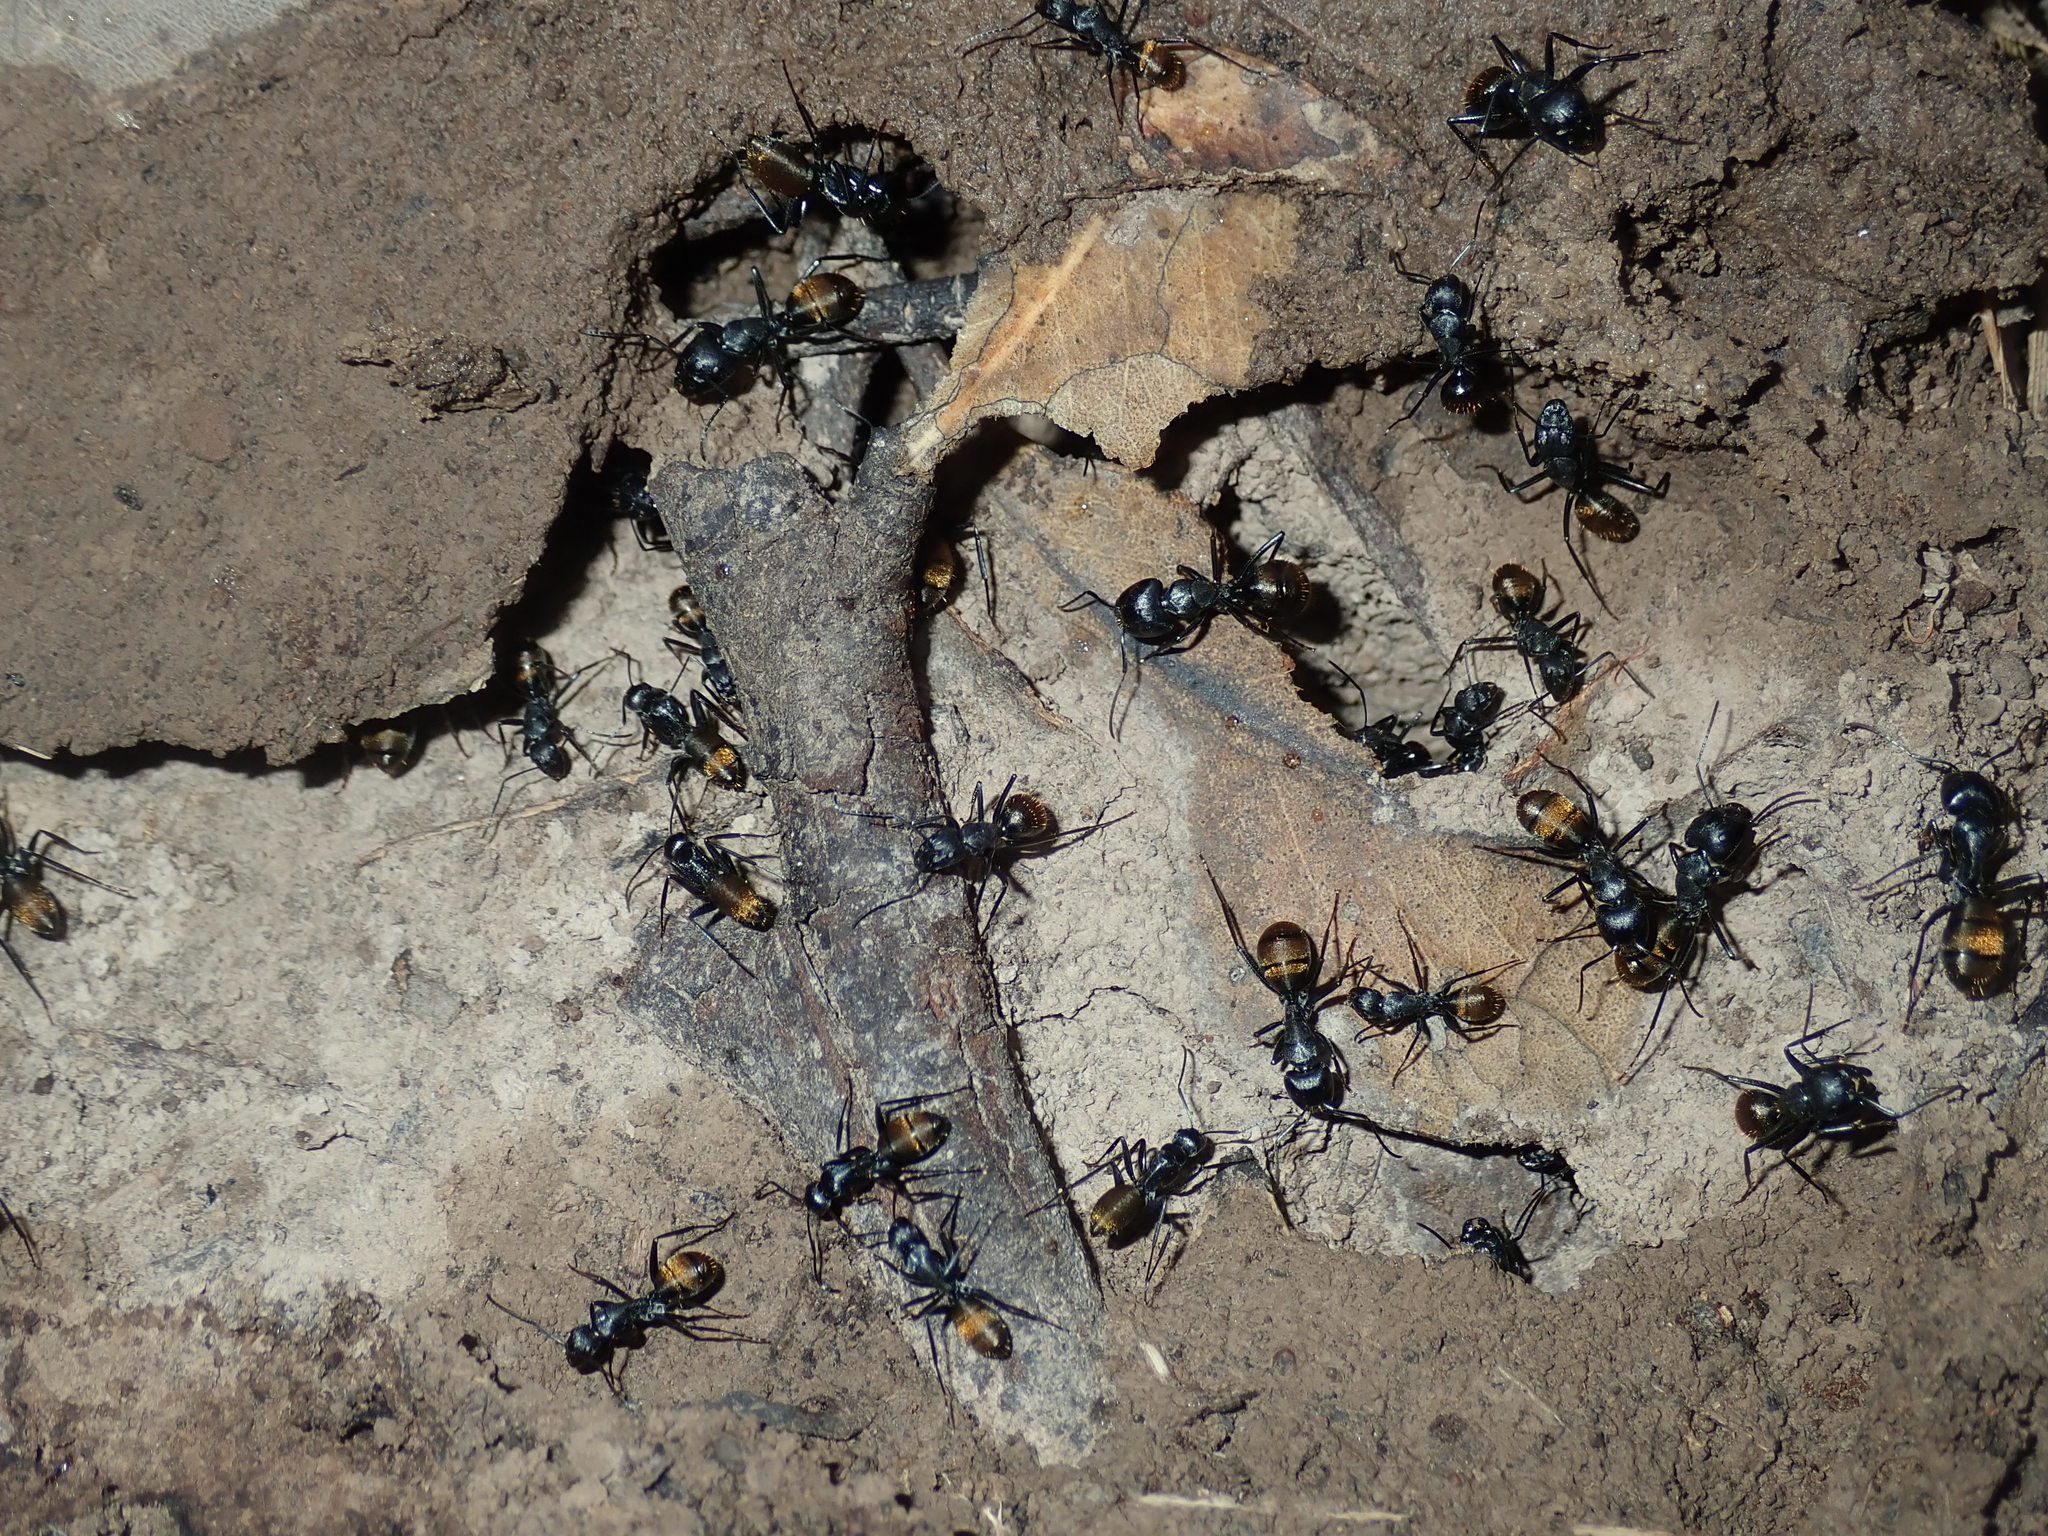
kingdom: Animalia
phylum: Arthropoda
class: Insecta
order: Hymenoptera
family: Formicidae
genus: Camponotus
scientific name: Camponotus aeneopilosus
